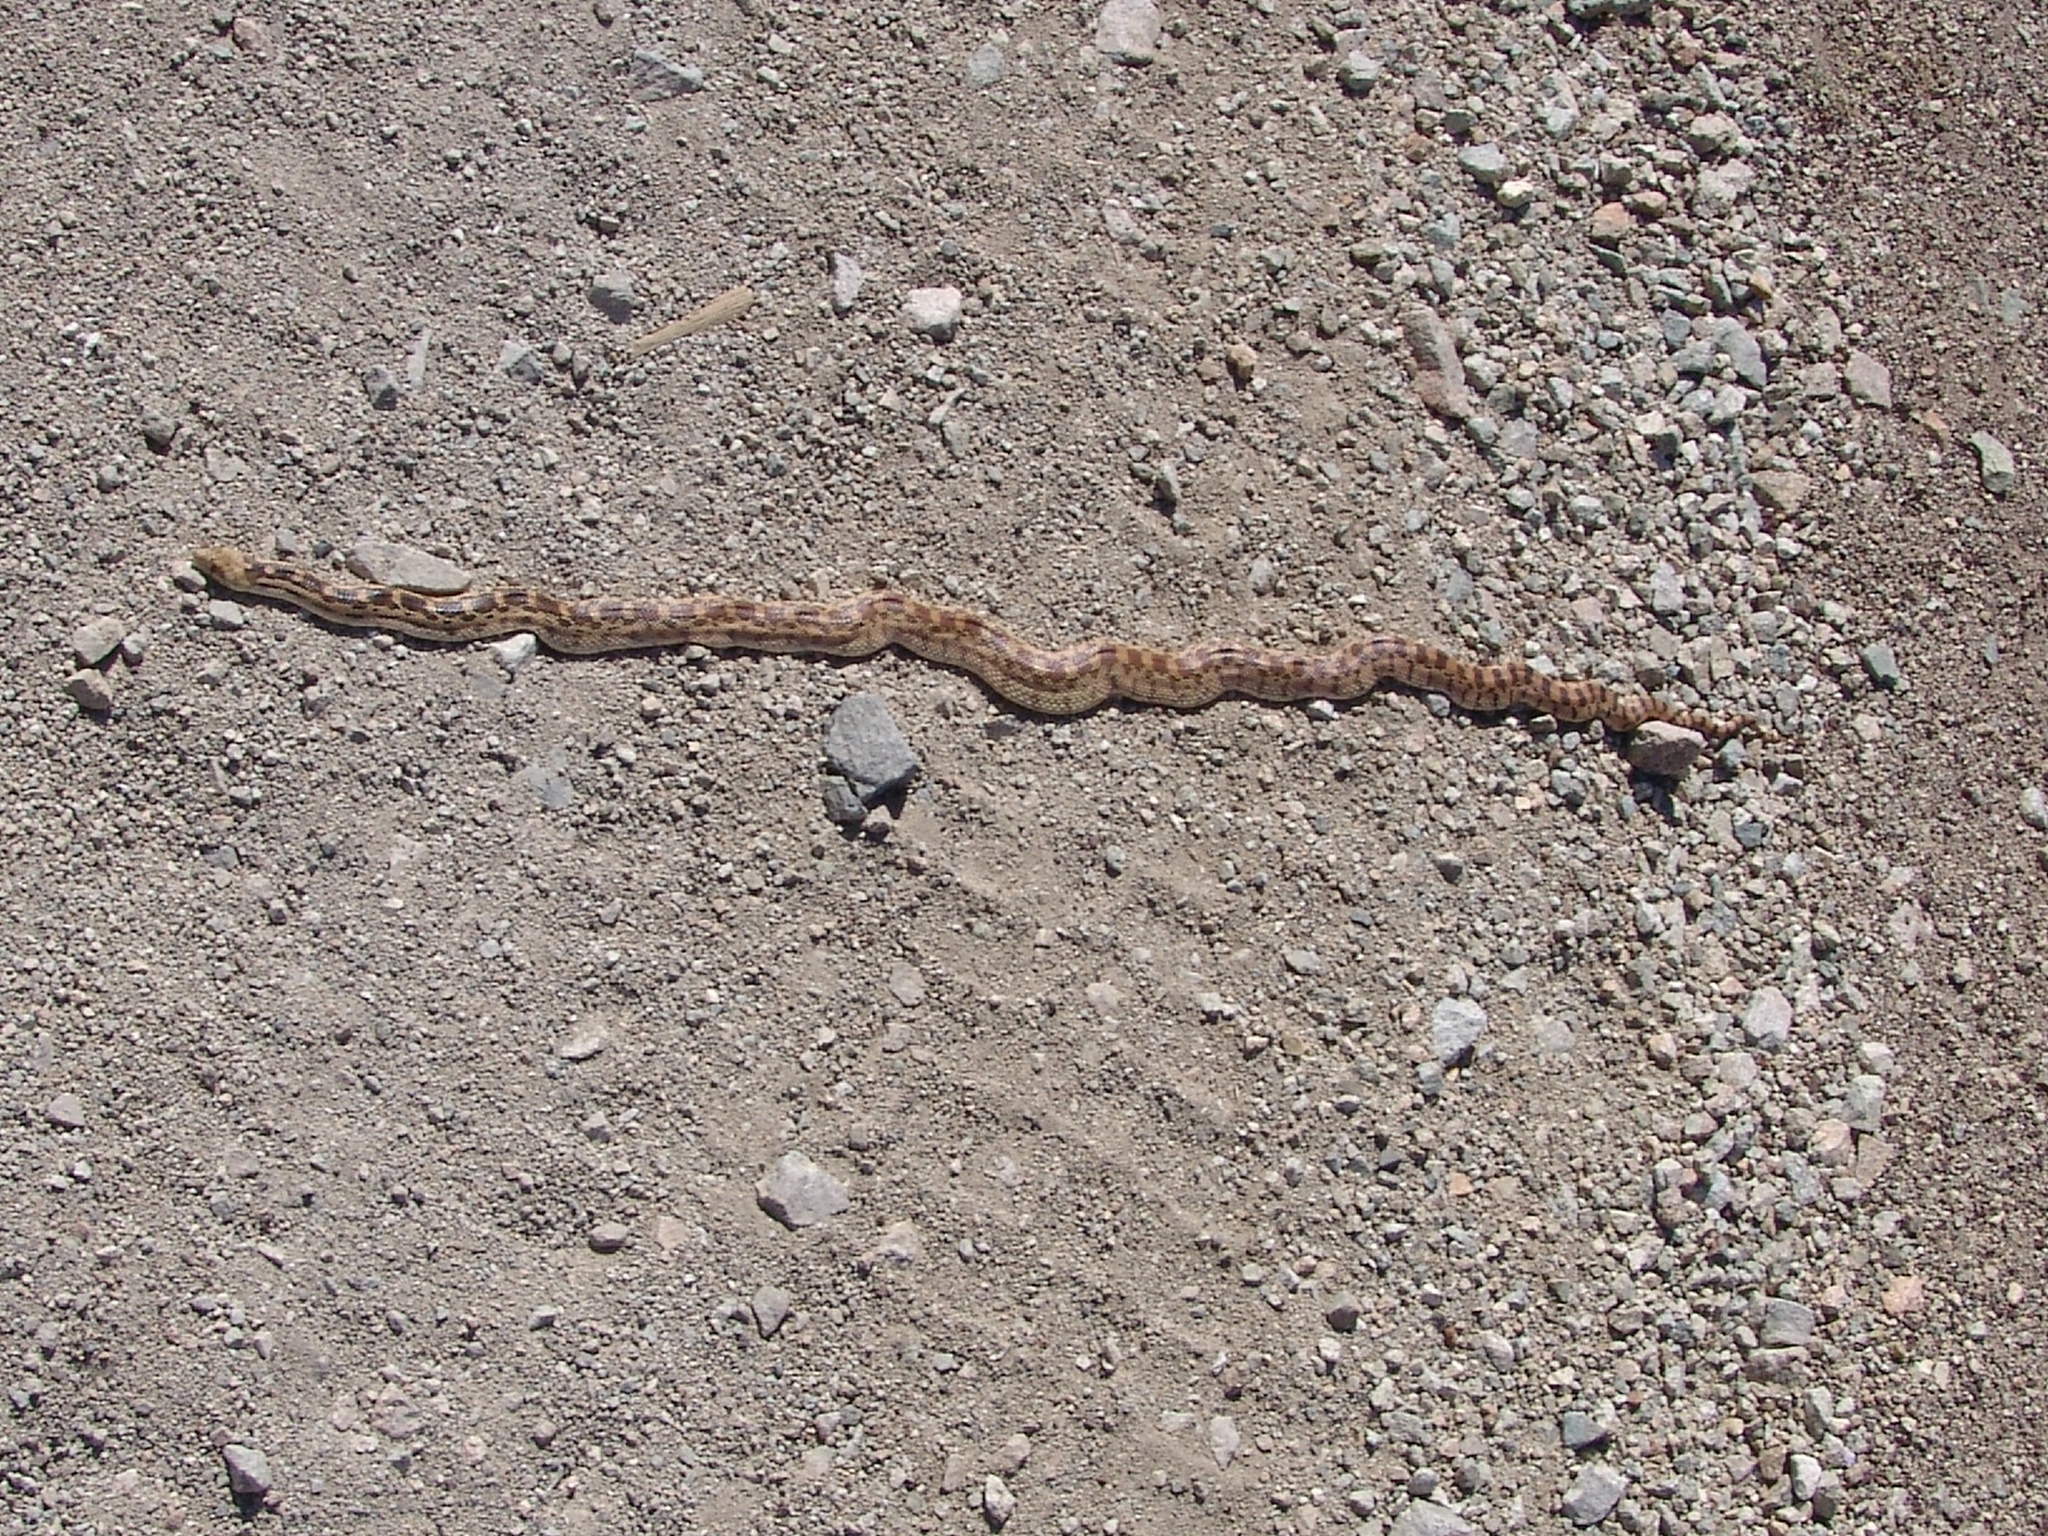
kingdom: Animalia
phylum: Chordata
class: Squamata
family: Colubridae
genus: Pituophis
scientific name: Pituophis catenifer
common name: Gopher snake
